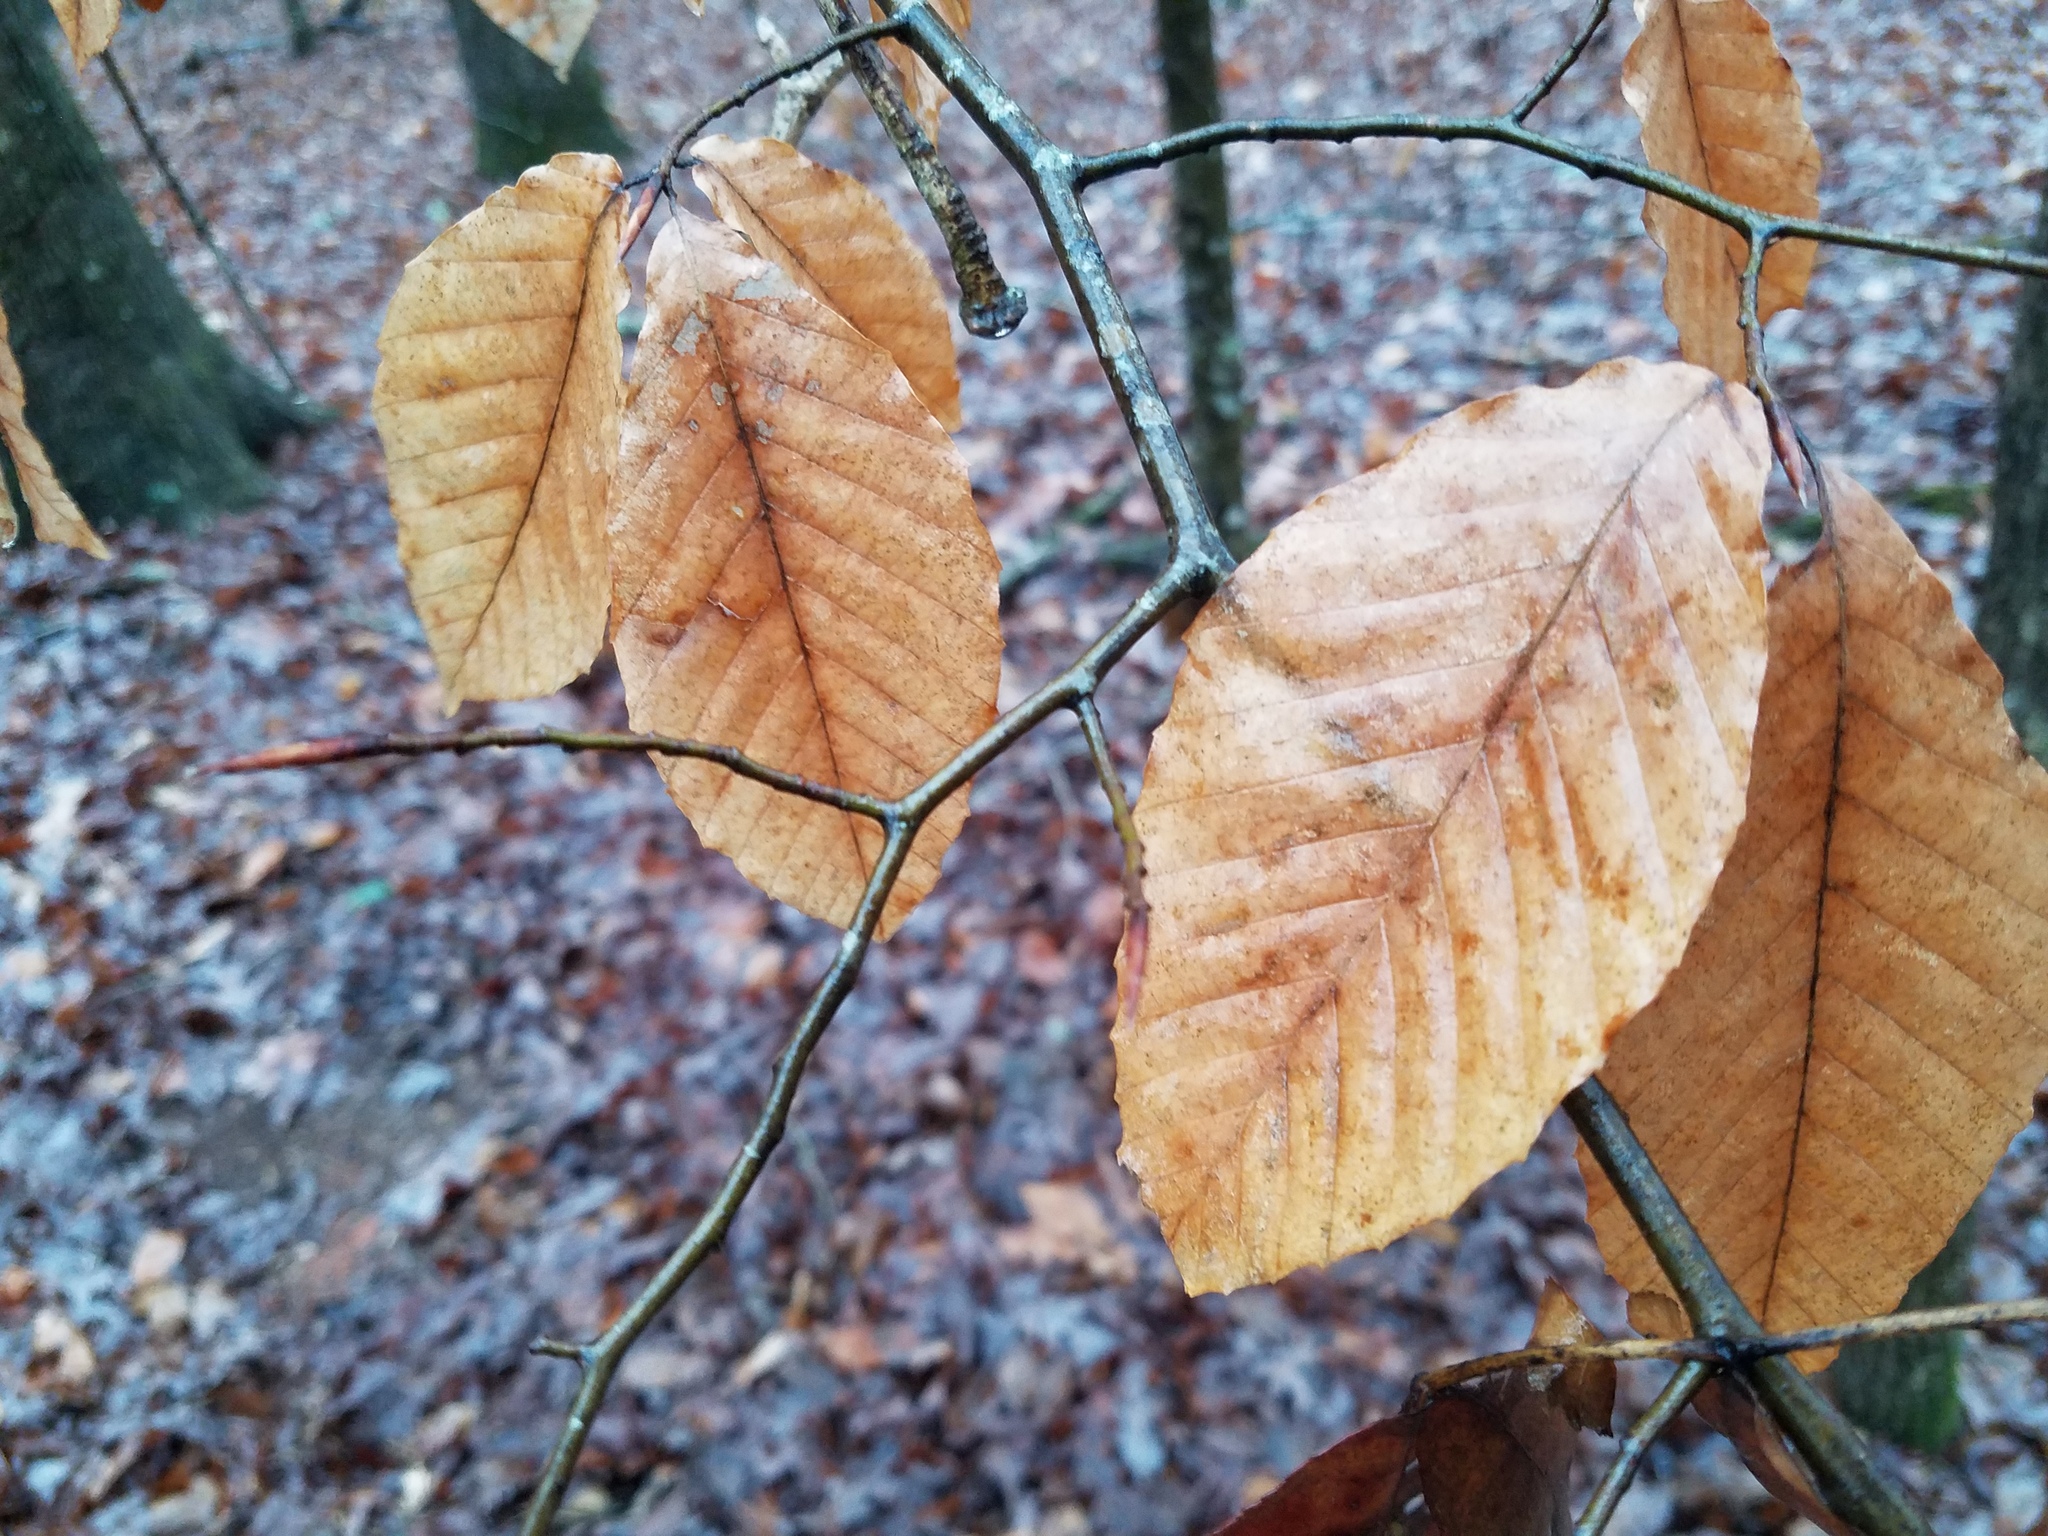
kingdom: Plantae
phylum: Tracheophyta
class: Magnoliopsida
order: Fagales
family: Fagaceae
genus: Fagus
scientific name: Fagus grandifolia
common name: American beech
